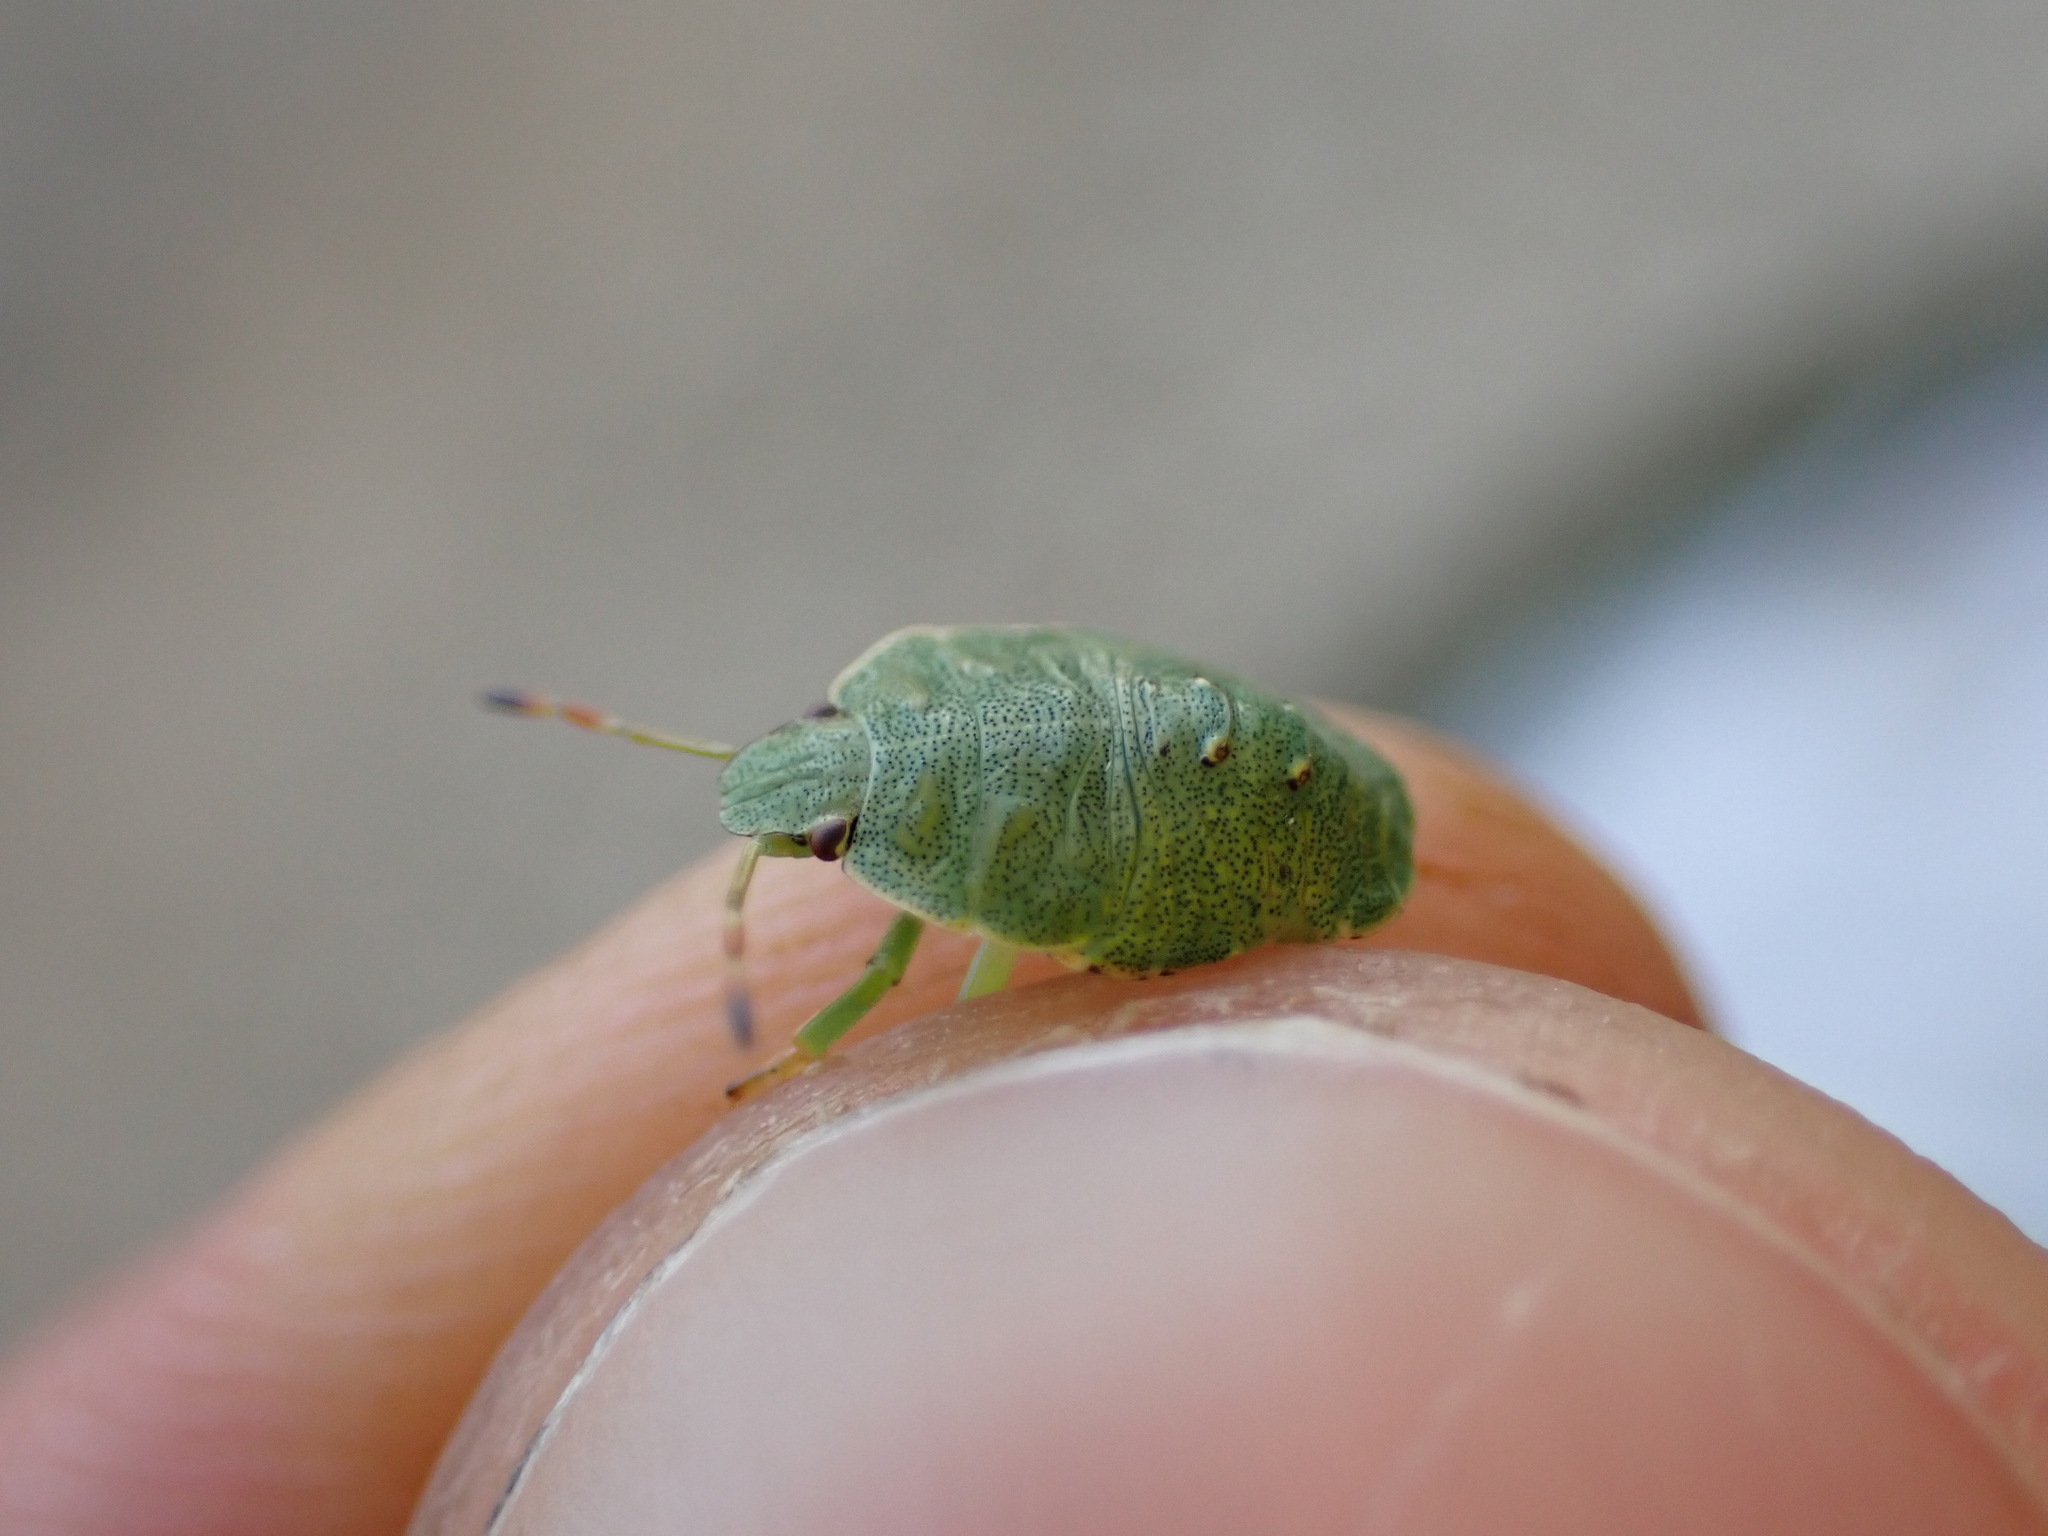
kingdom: Animalia
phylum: Arthropoda
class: Insecta
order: Hemiptera
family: Pentatomidae
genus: Palomena
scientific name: Palomena prasina
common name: Green shieldbug
